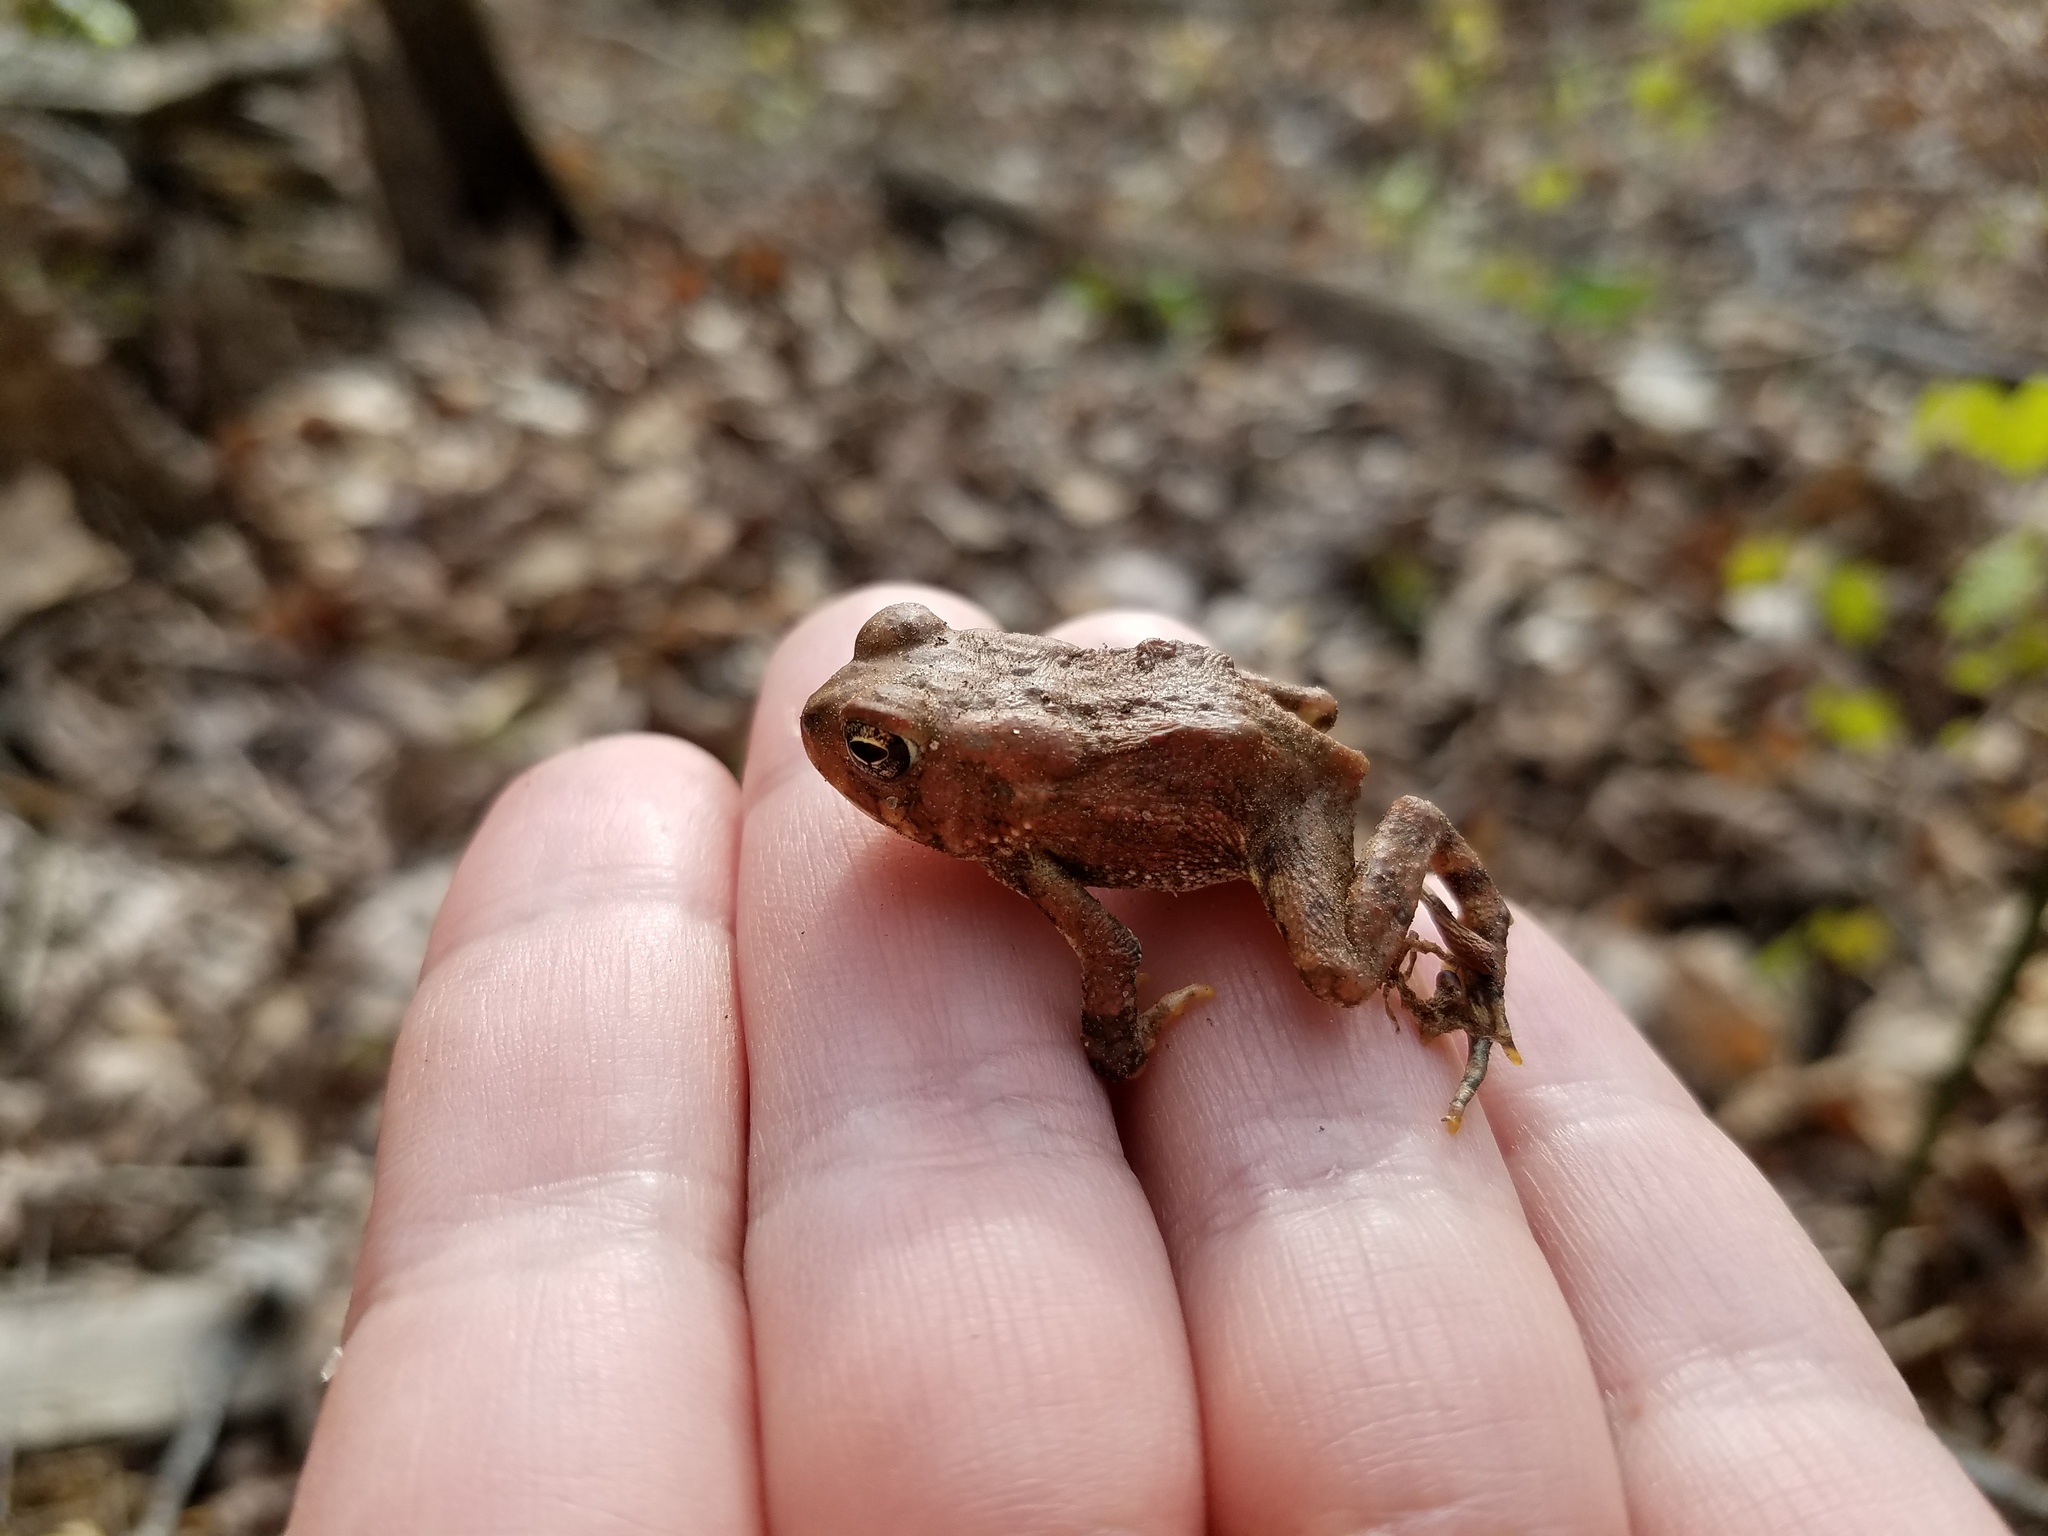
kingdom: Animalia
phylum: Chordata
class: Amphibia
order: Anura
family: Bufonidae
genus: Anaxyrus
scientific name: Anaxyrus
